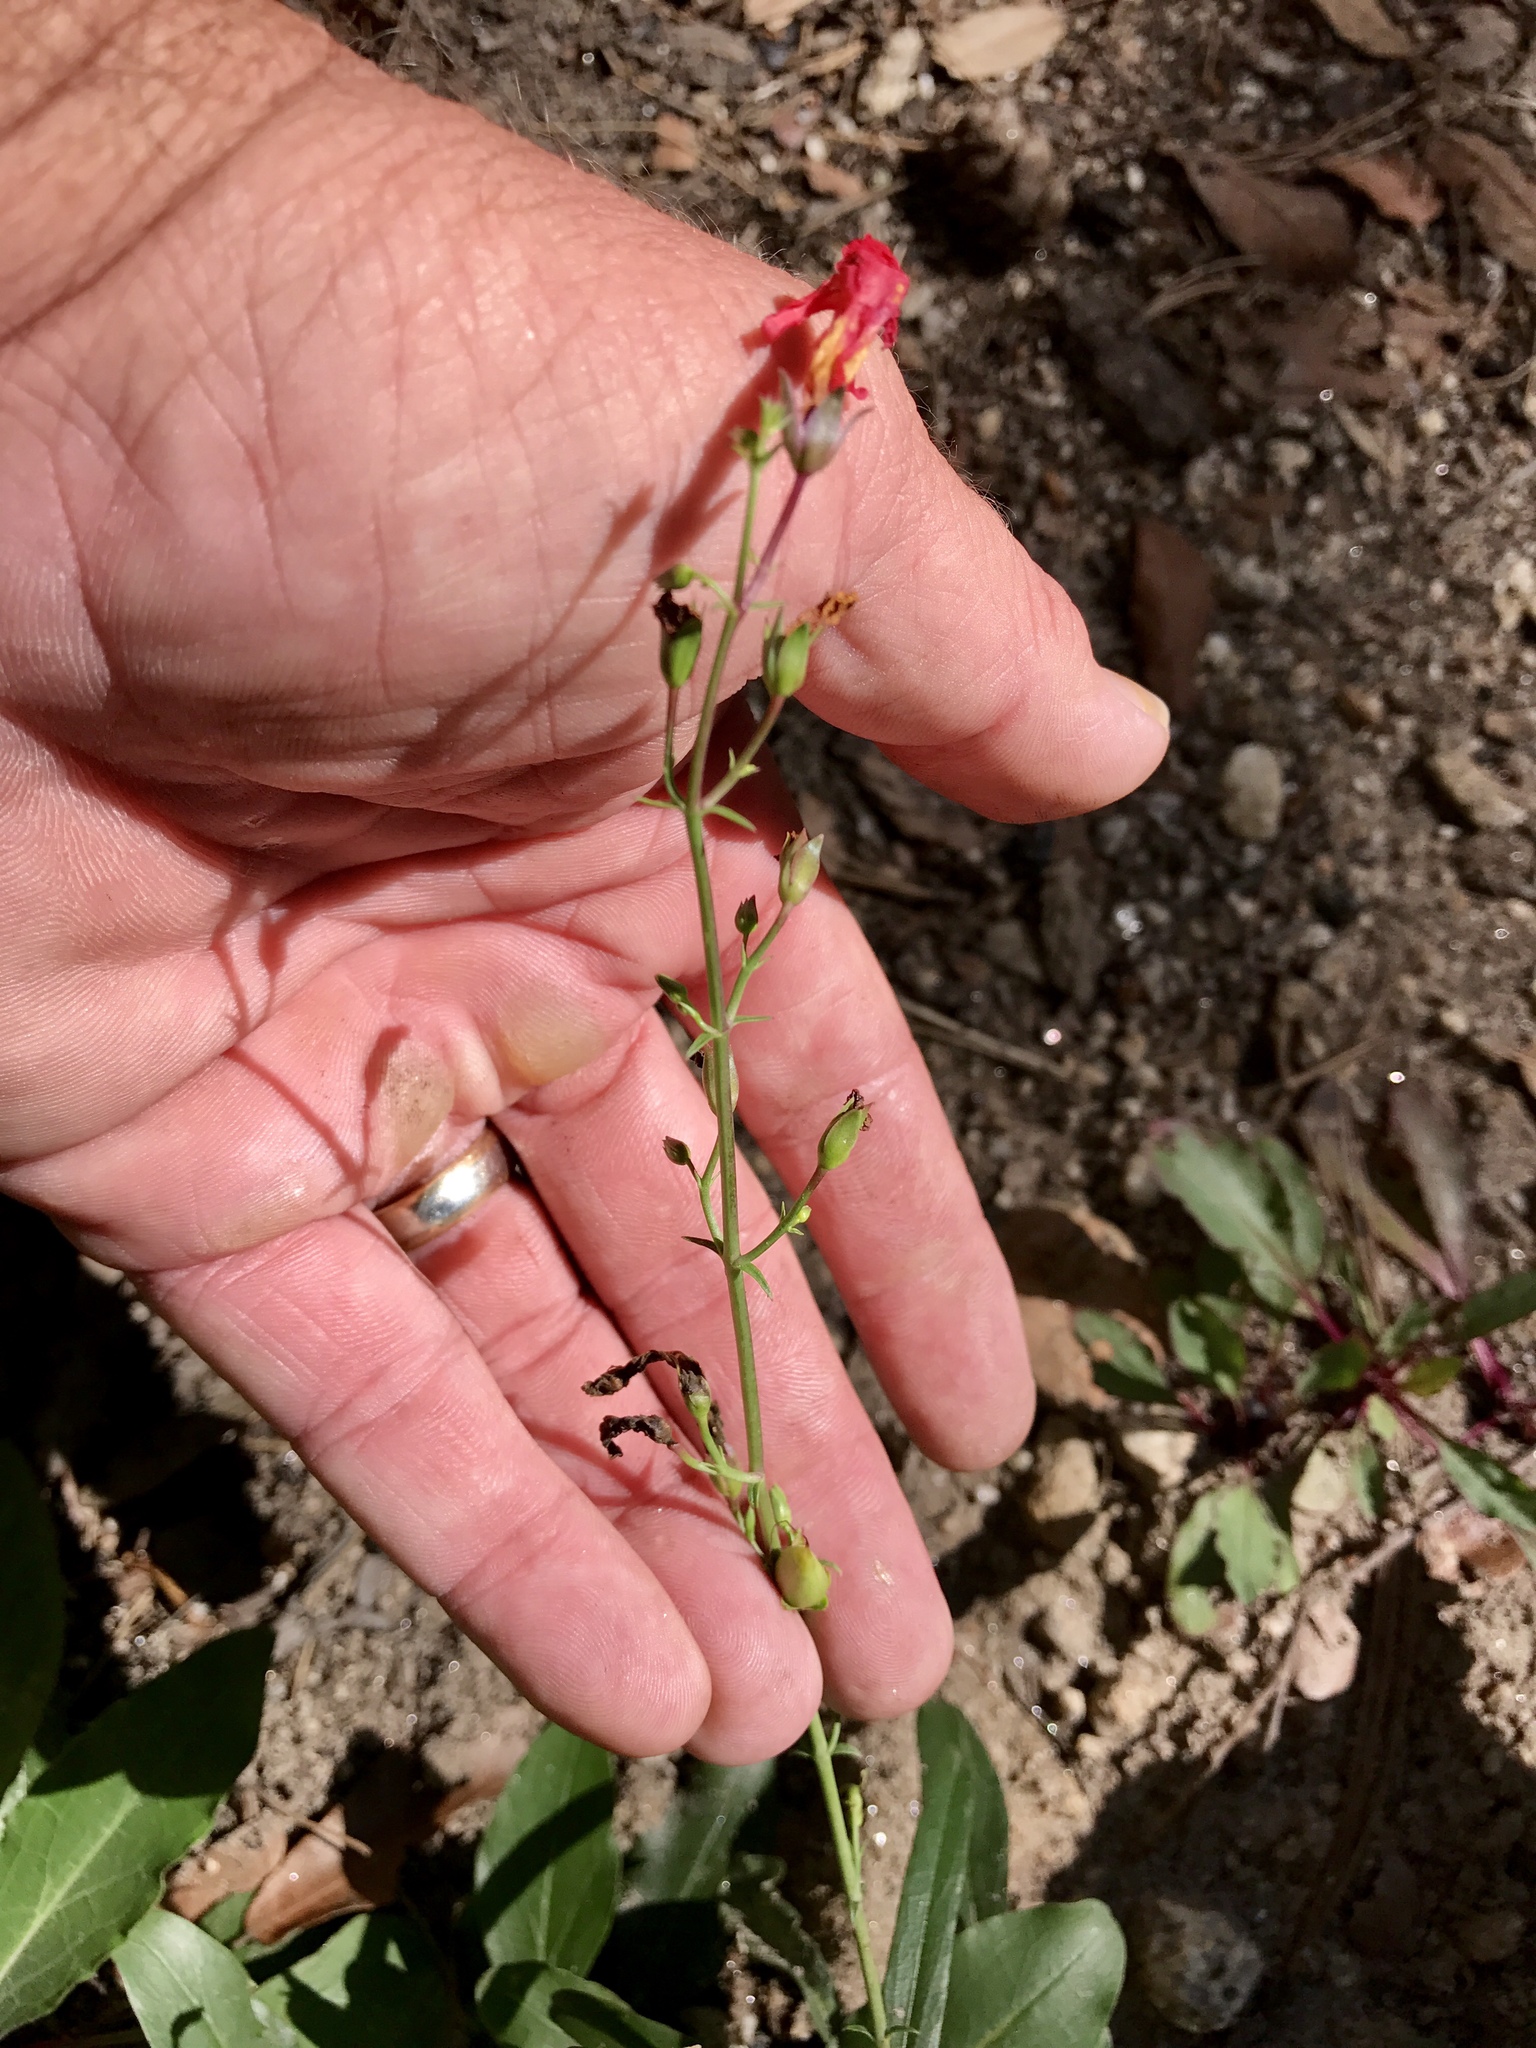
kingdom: Plantae
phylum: Tracheophyta
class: Magnoliopsida
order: Lamiales
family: Plantaginaceae
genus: Penstemon
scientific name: Penstemon barbatus
